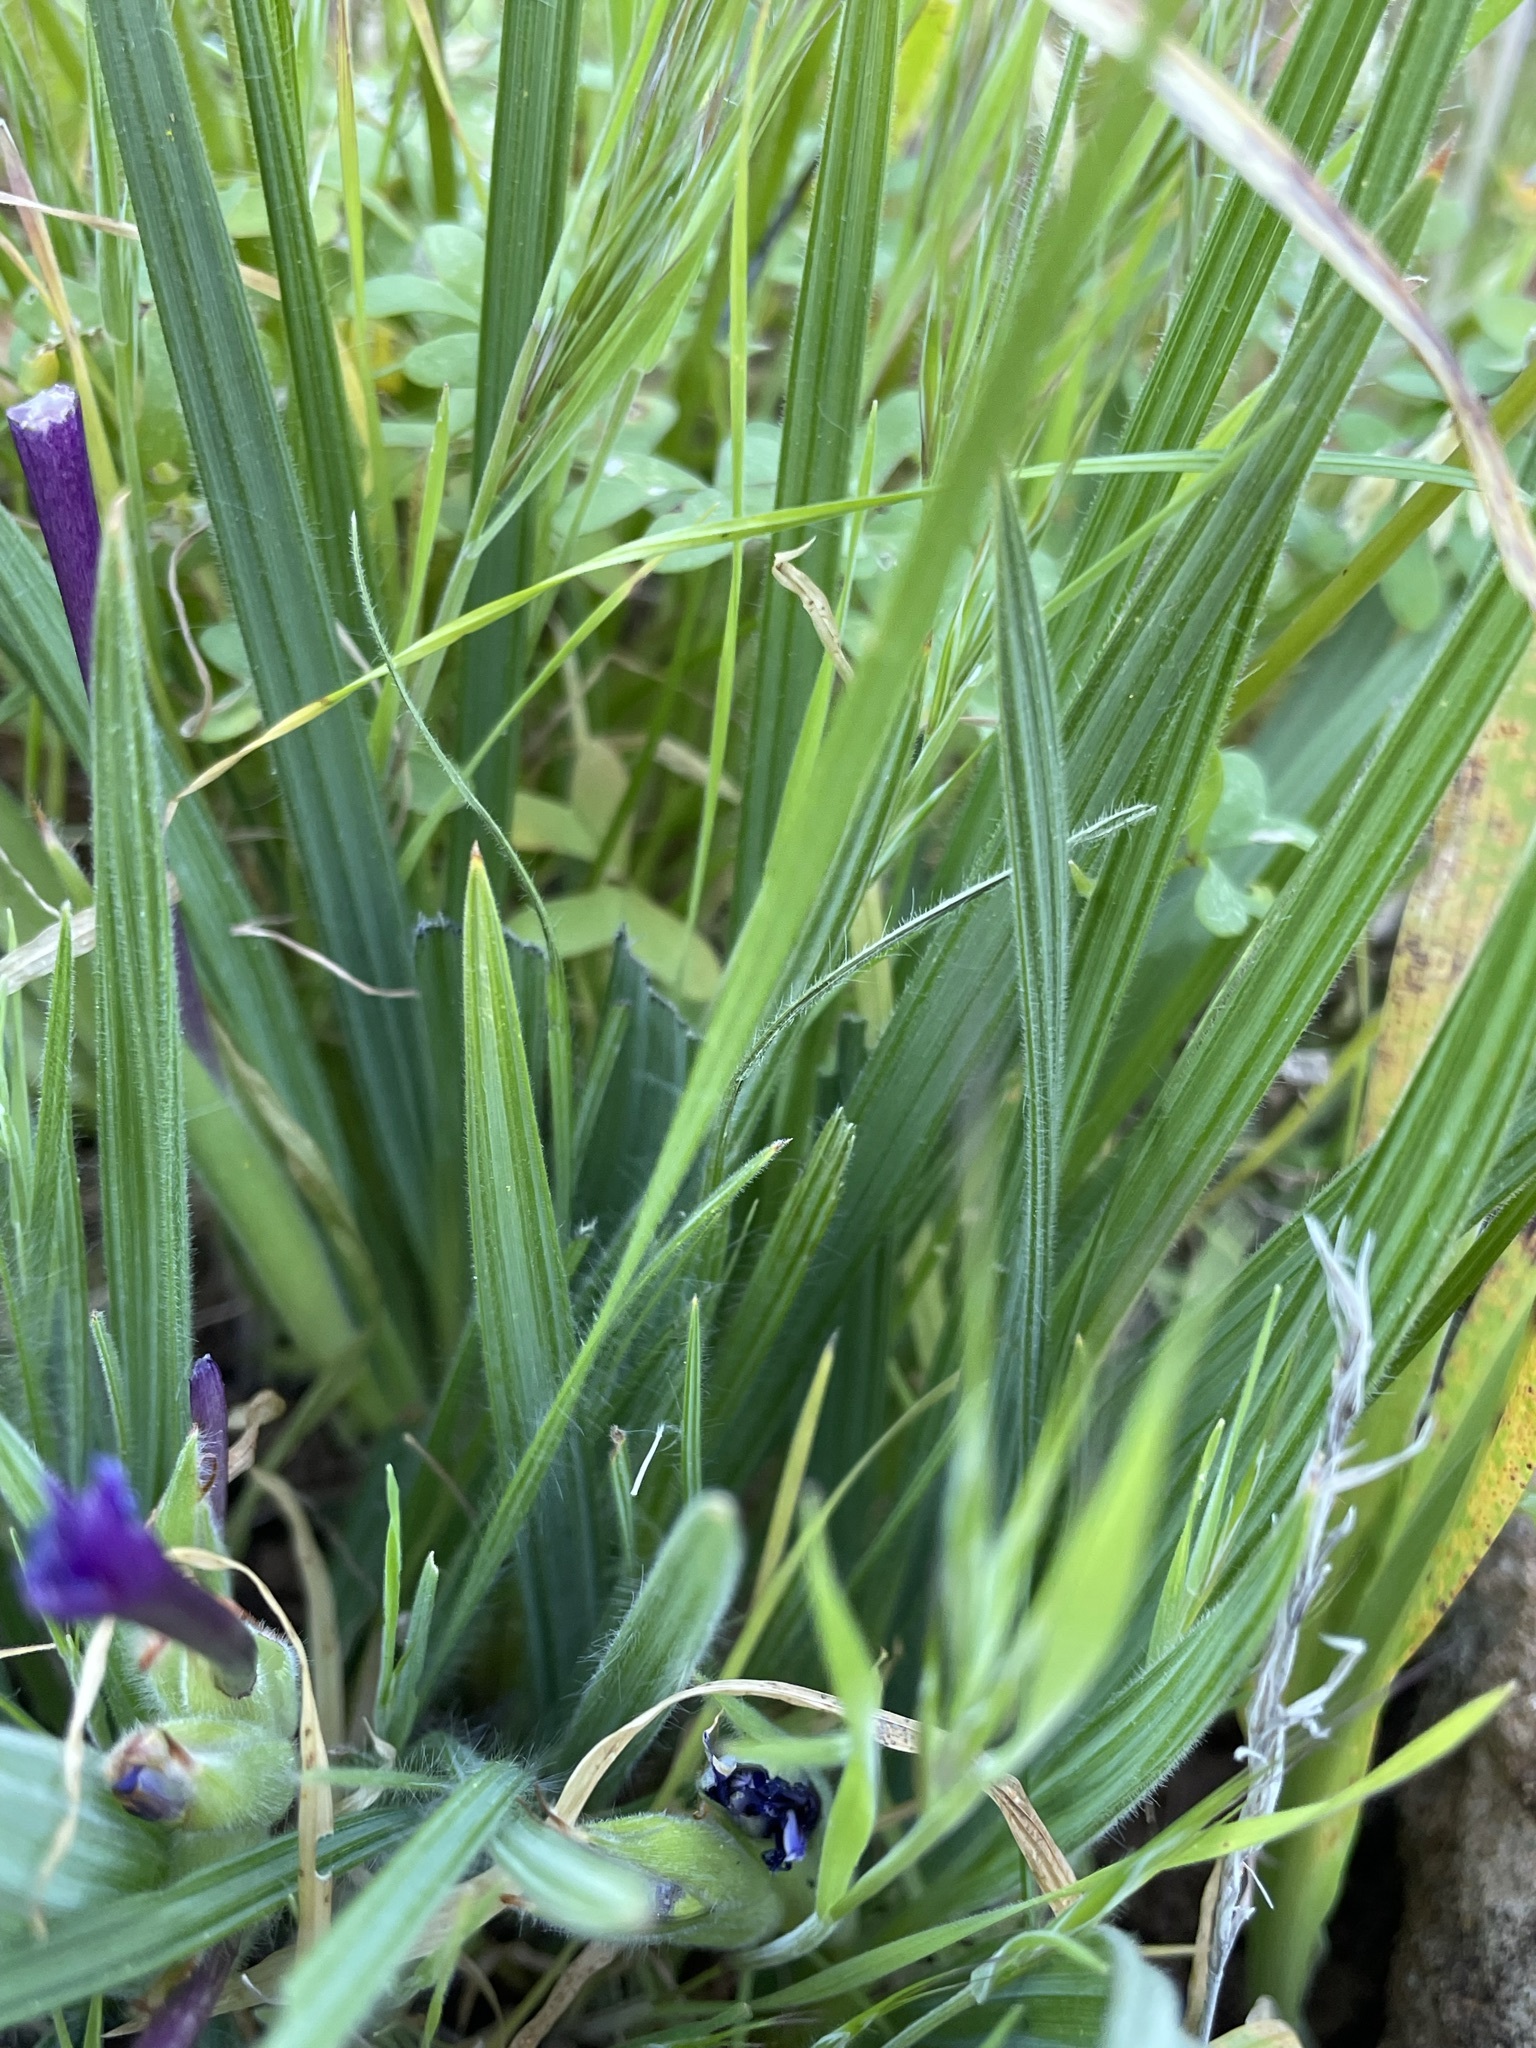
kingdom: Plantae
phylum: Tracheophyta
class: Liliopsida
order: Asparagales
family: Iridaceae
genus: Babiana
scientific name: Babiana framesii
